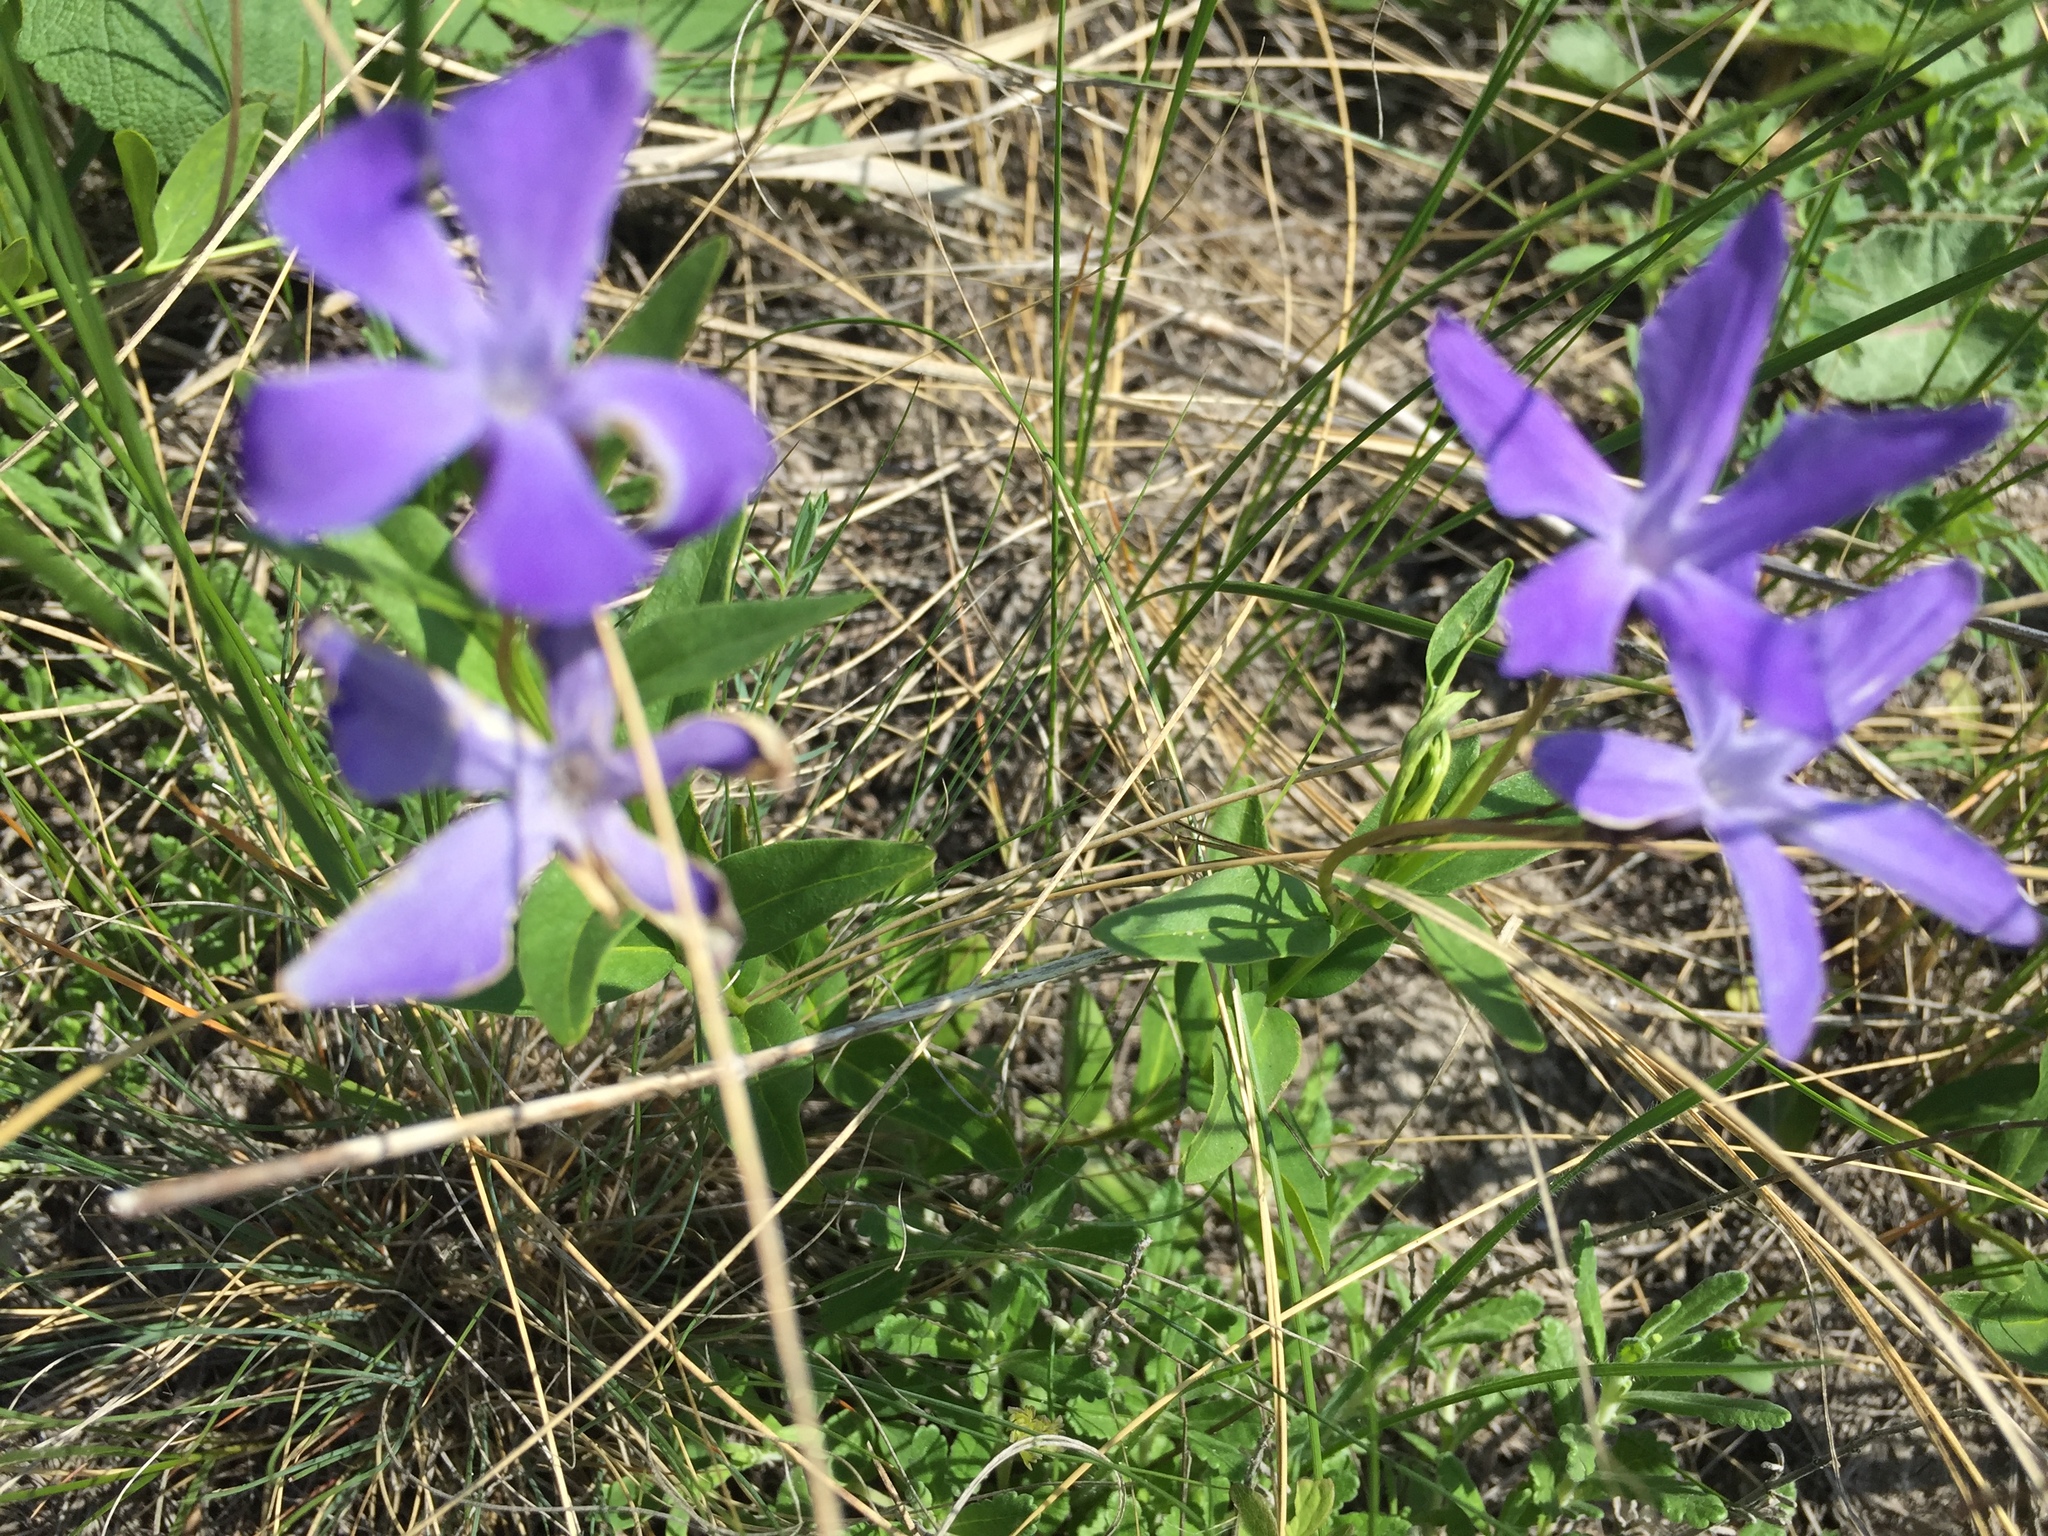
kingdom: Plantae
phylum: Tracheophyta
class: Magnoliopsida
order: Gentianales
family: Apocynaceae
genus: Vinca
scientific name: Vinca herbacea
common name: Herbaceous periwinkle
